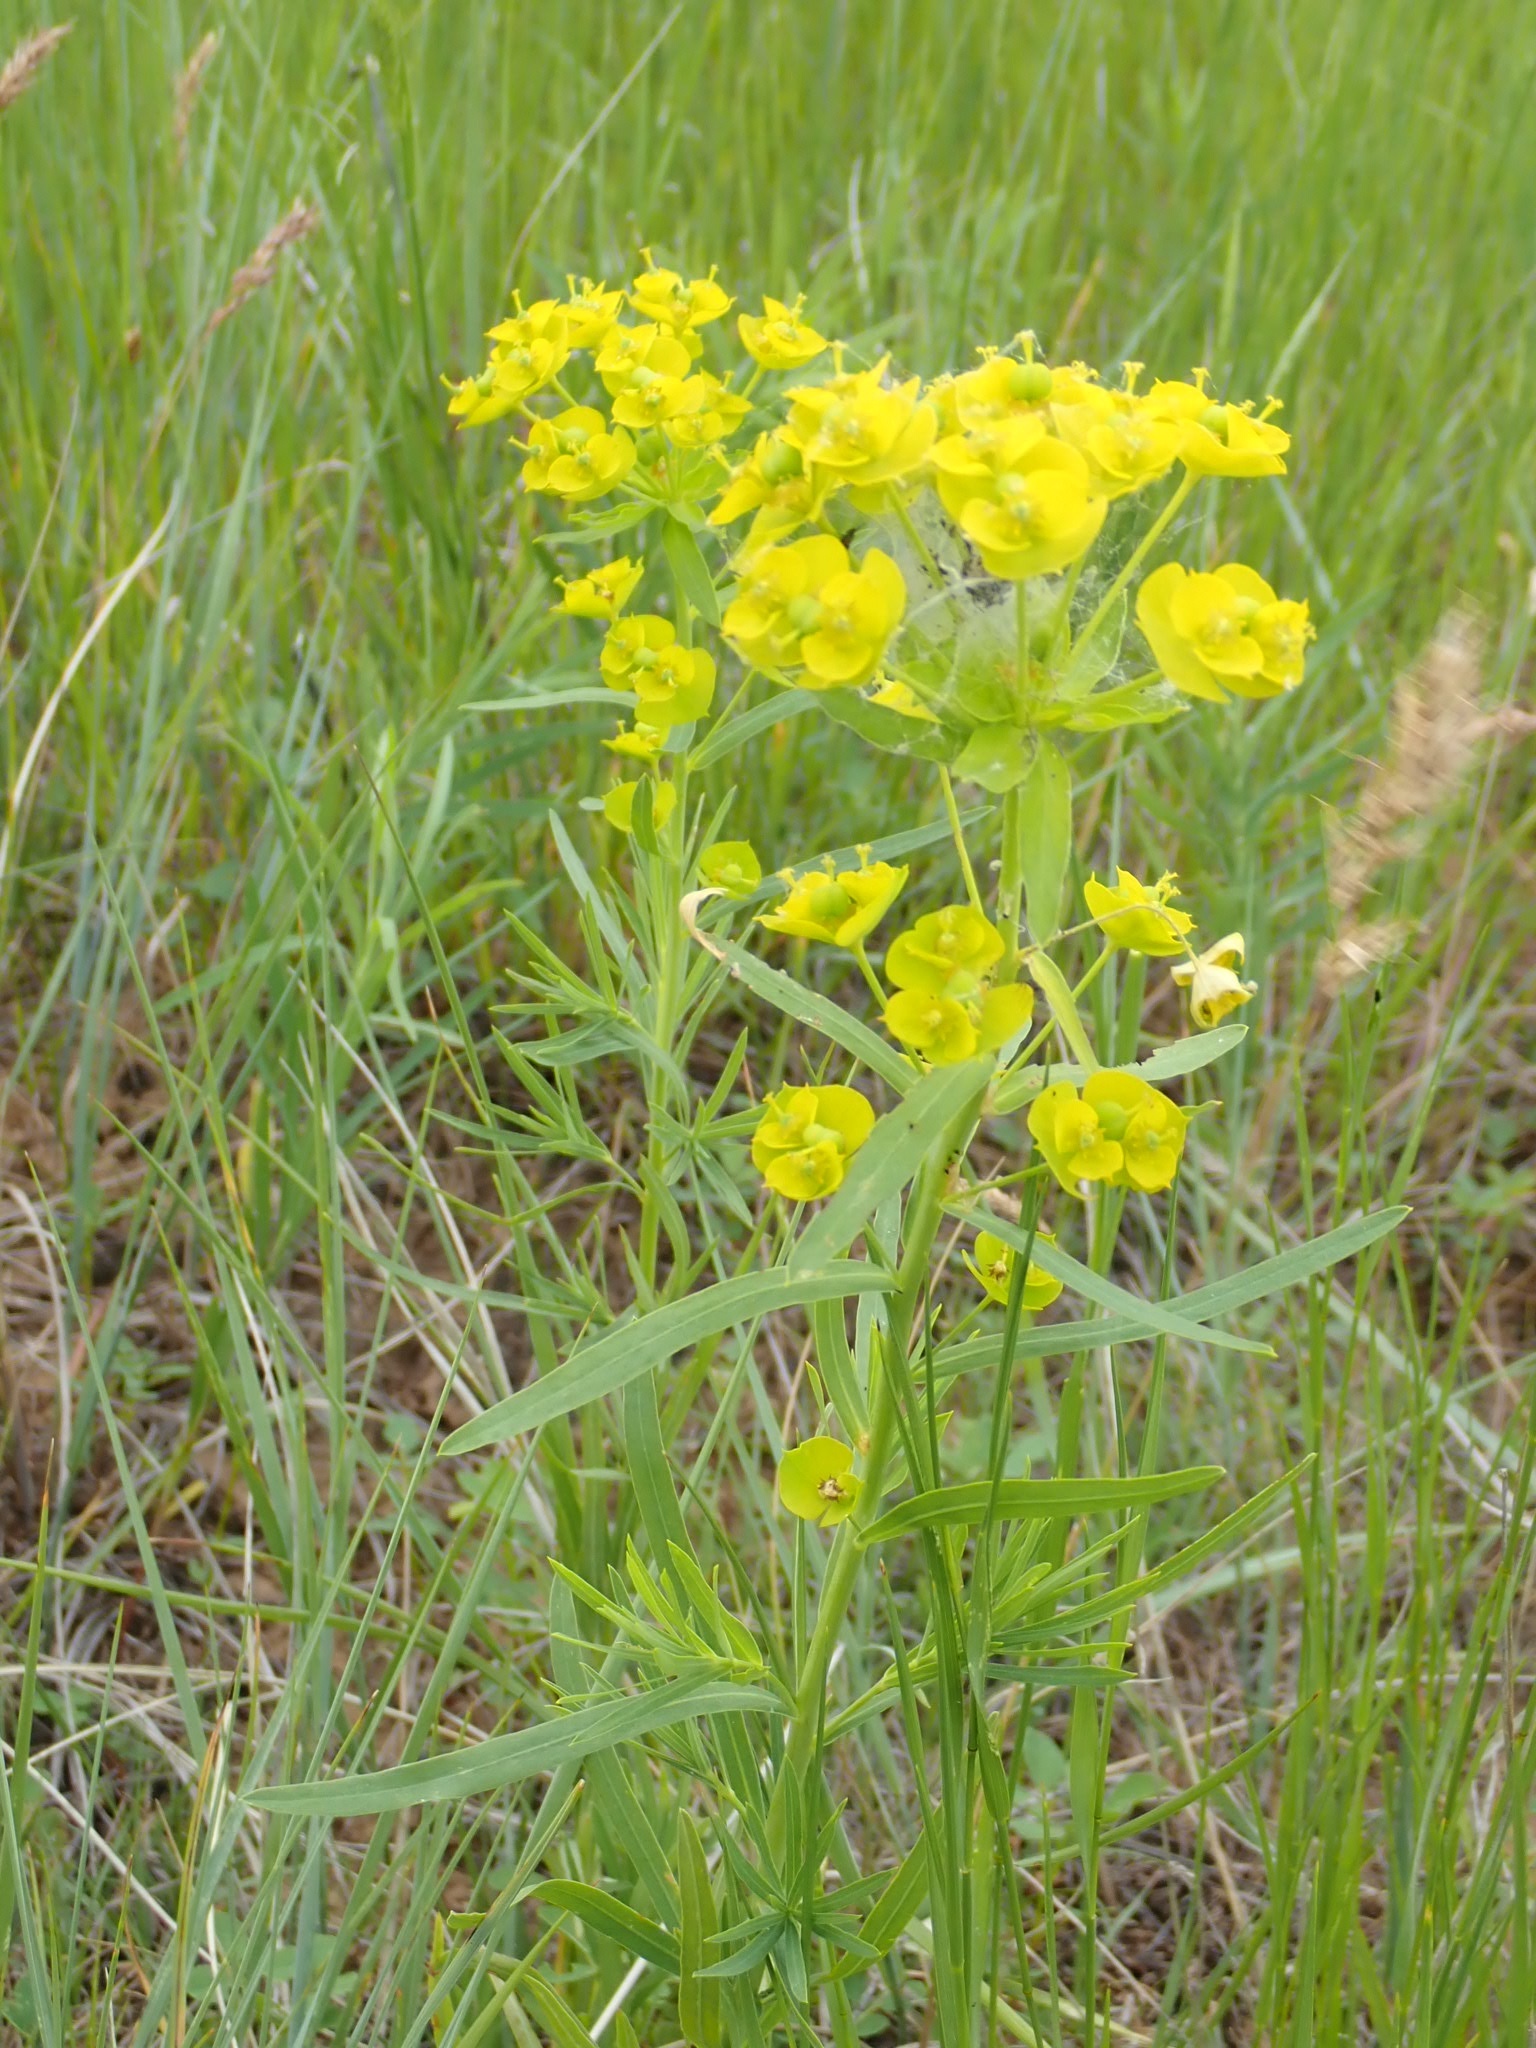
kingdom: Plantae
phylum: Tracheophyta
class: Magnoliopsida
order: Malpighiales
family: Euphorbiaceae
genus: Euphorbia
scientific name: Euphorbia virgata
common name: Leafy spurge
